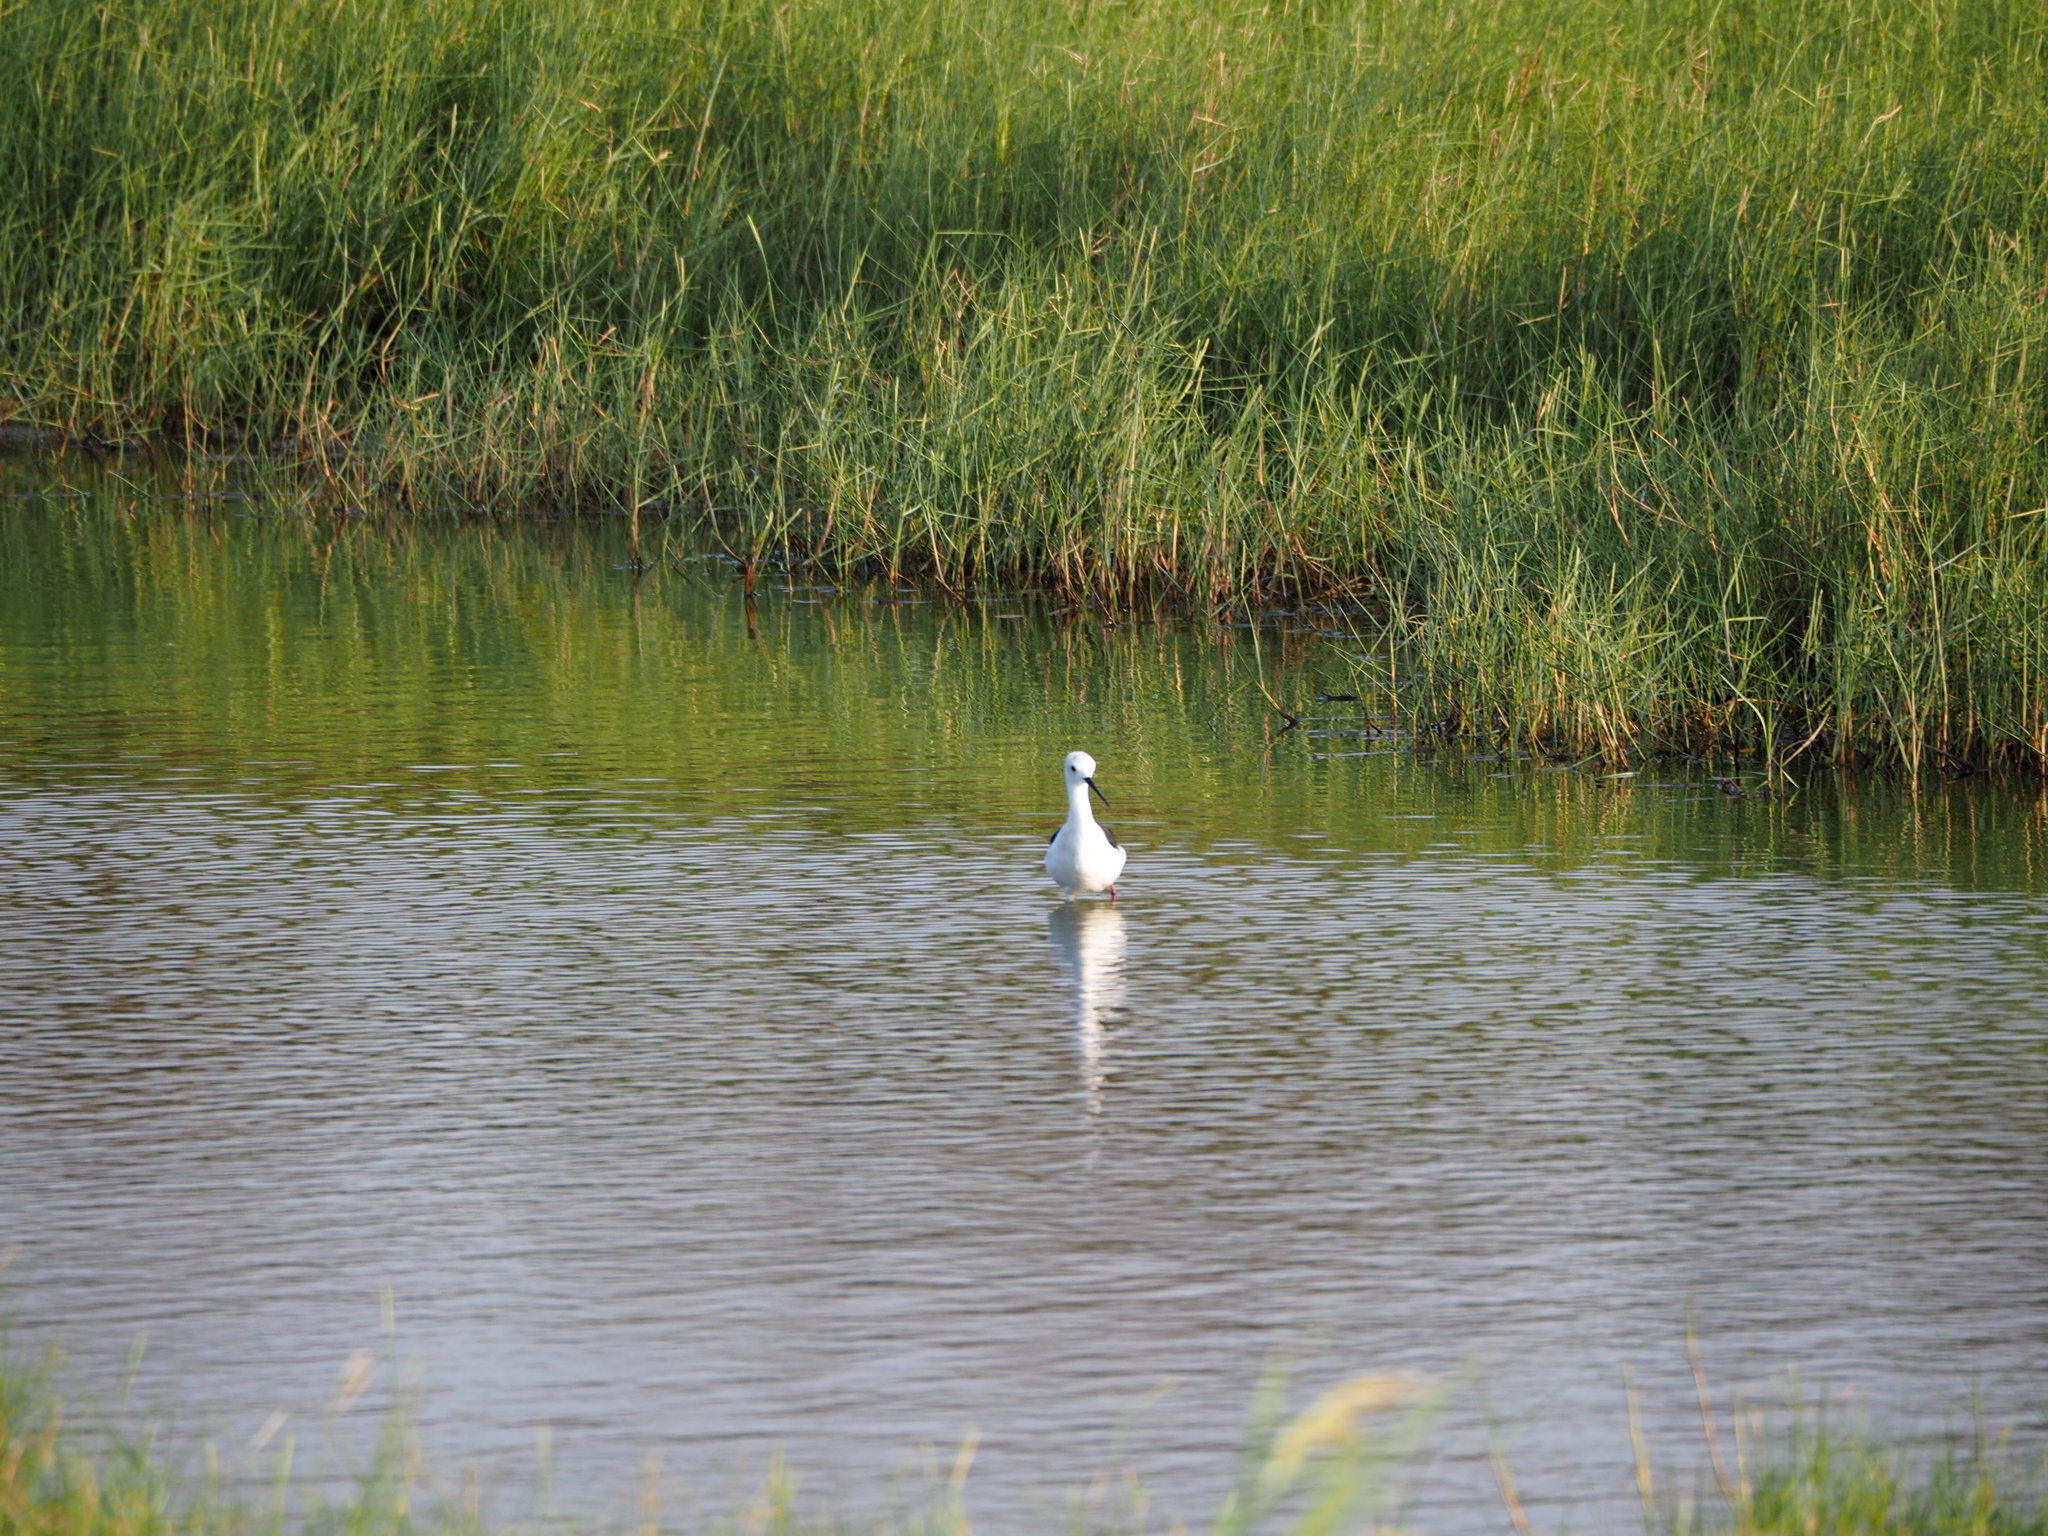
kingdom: Animalia
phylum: Chordata
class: Aves
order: Charadriiformes
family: Recurvirostridae
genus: Himantopus
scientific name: Himantopus himantopus
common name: Black-winged stilt
